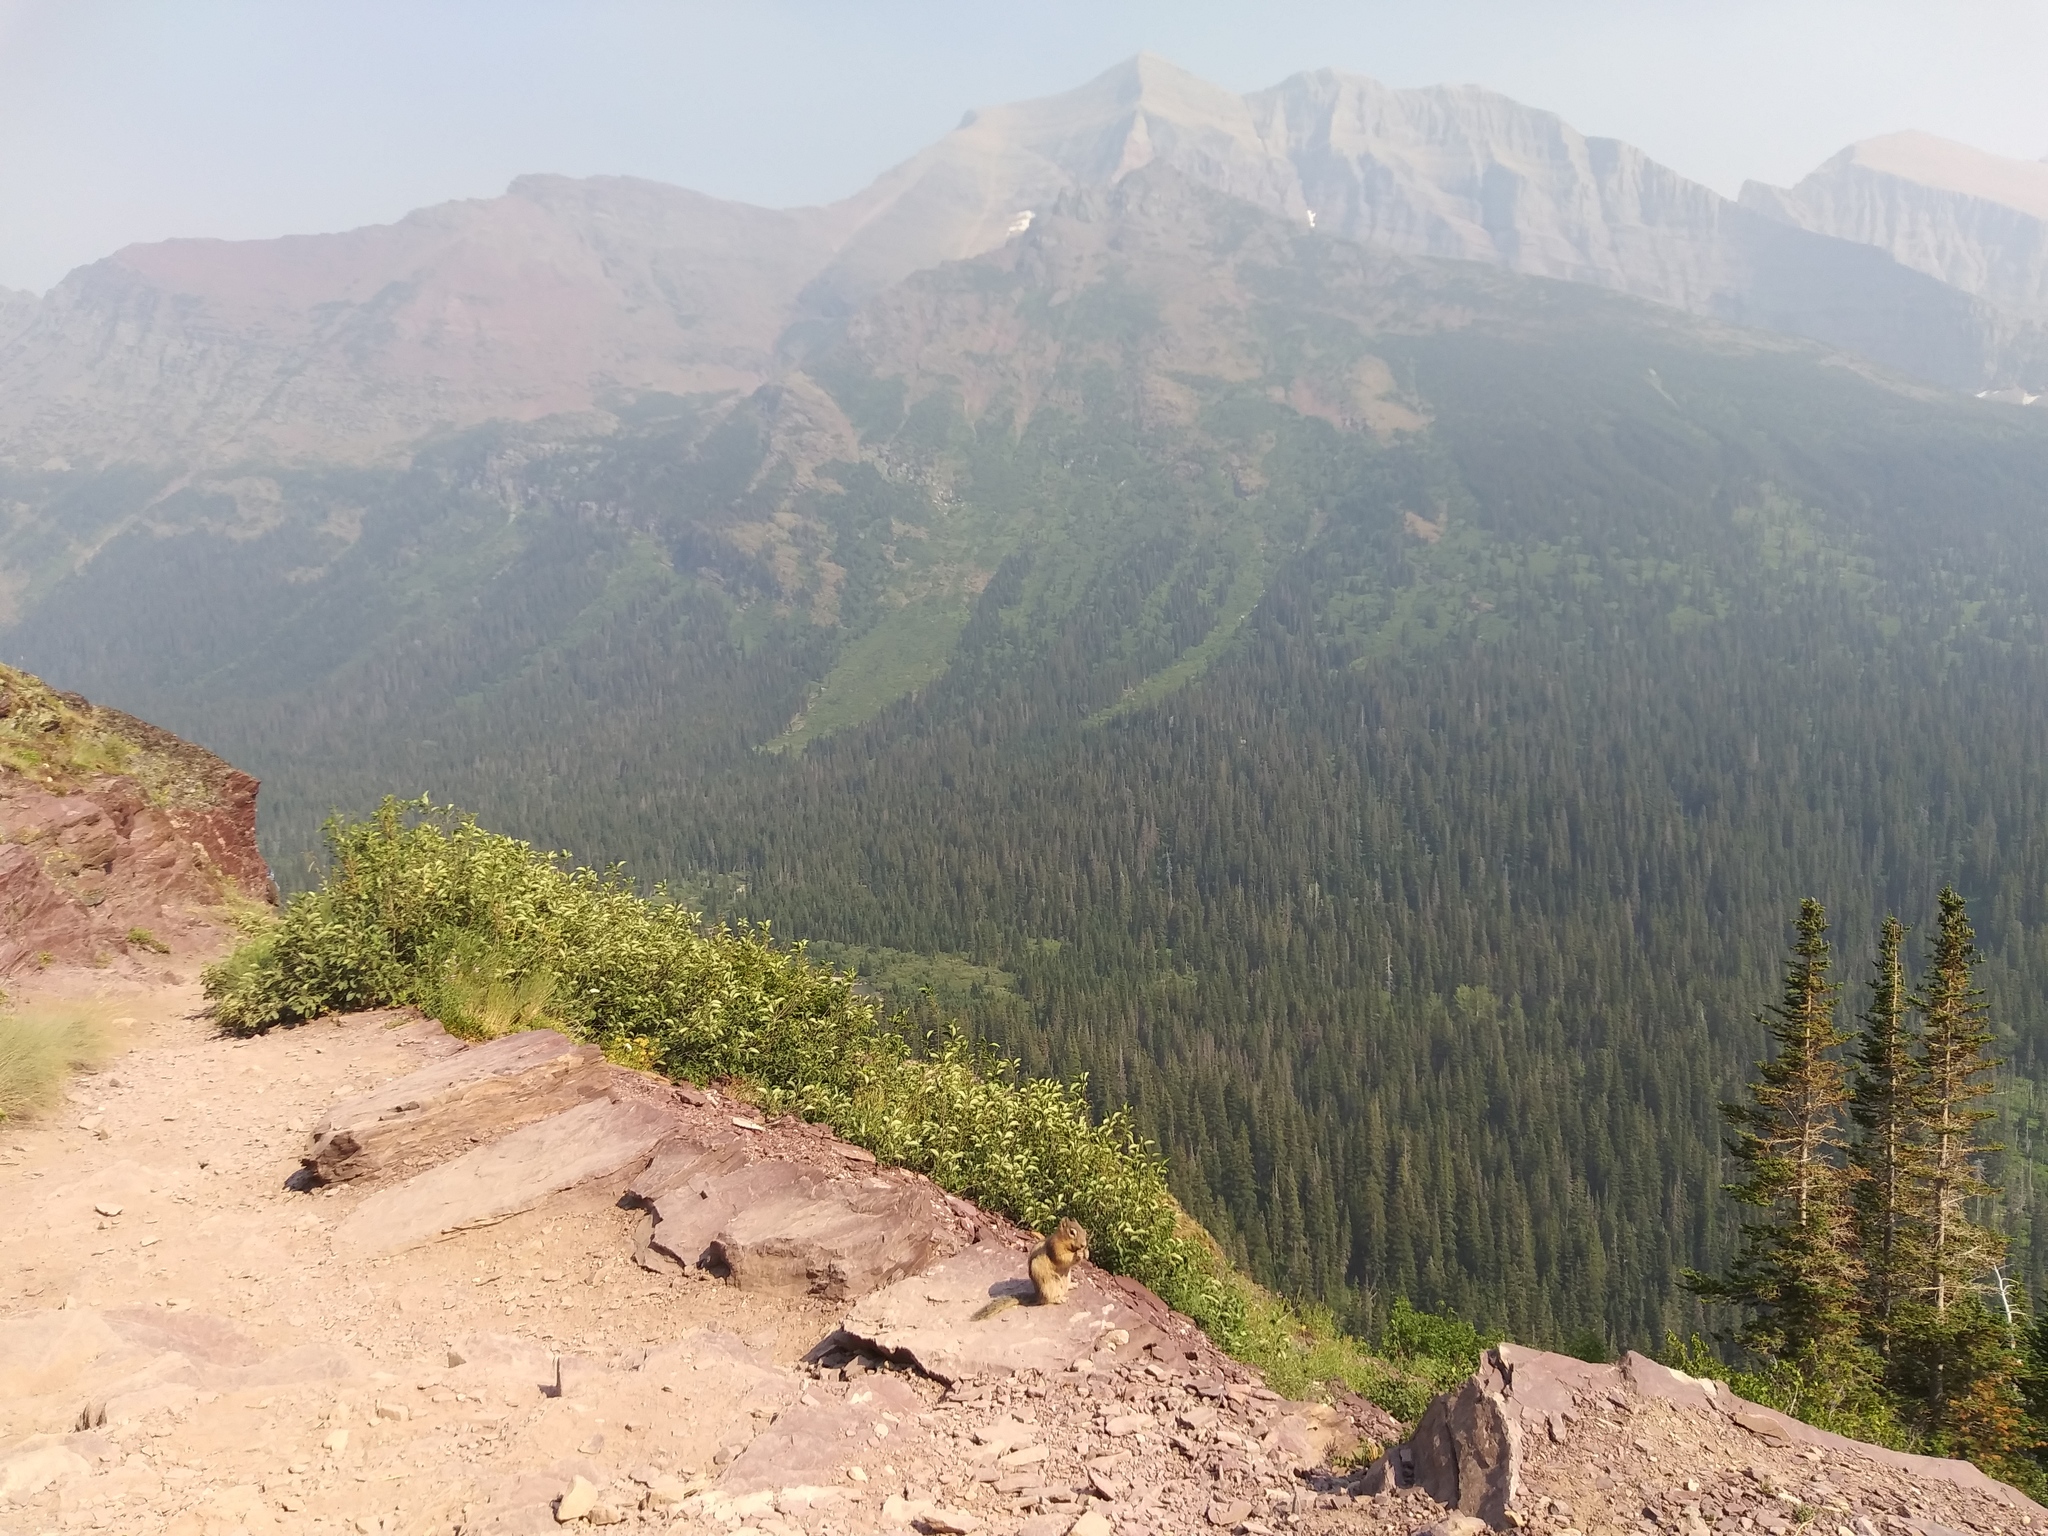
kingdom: Animalia
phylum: Chordata
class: Mammalia
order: Rodentia
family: Sciuridae
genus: Callospermophilus
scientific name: Callospermophilus lateralis
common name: Golden-mantled ground squirrel
